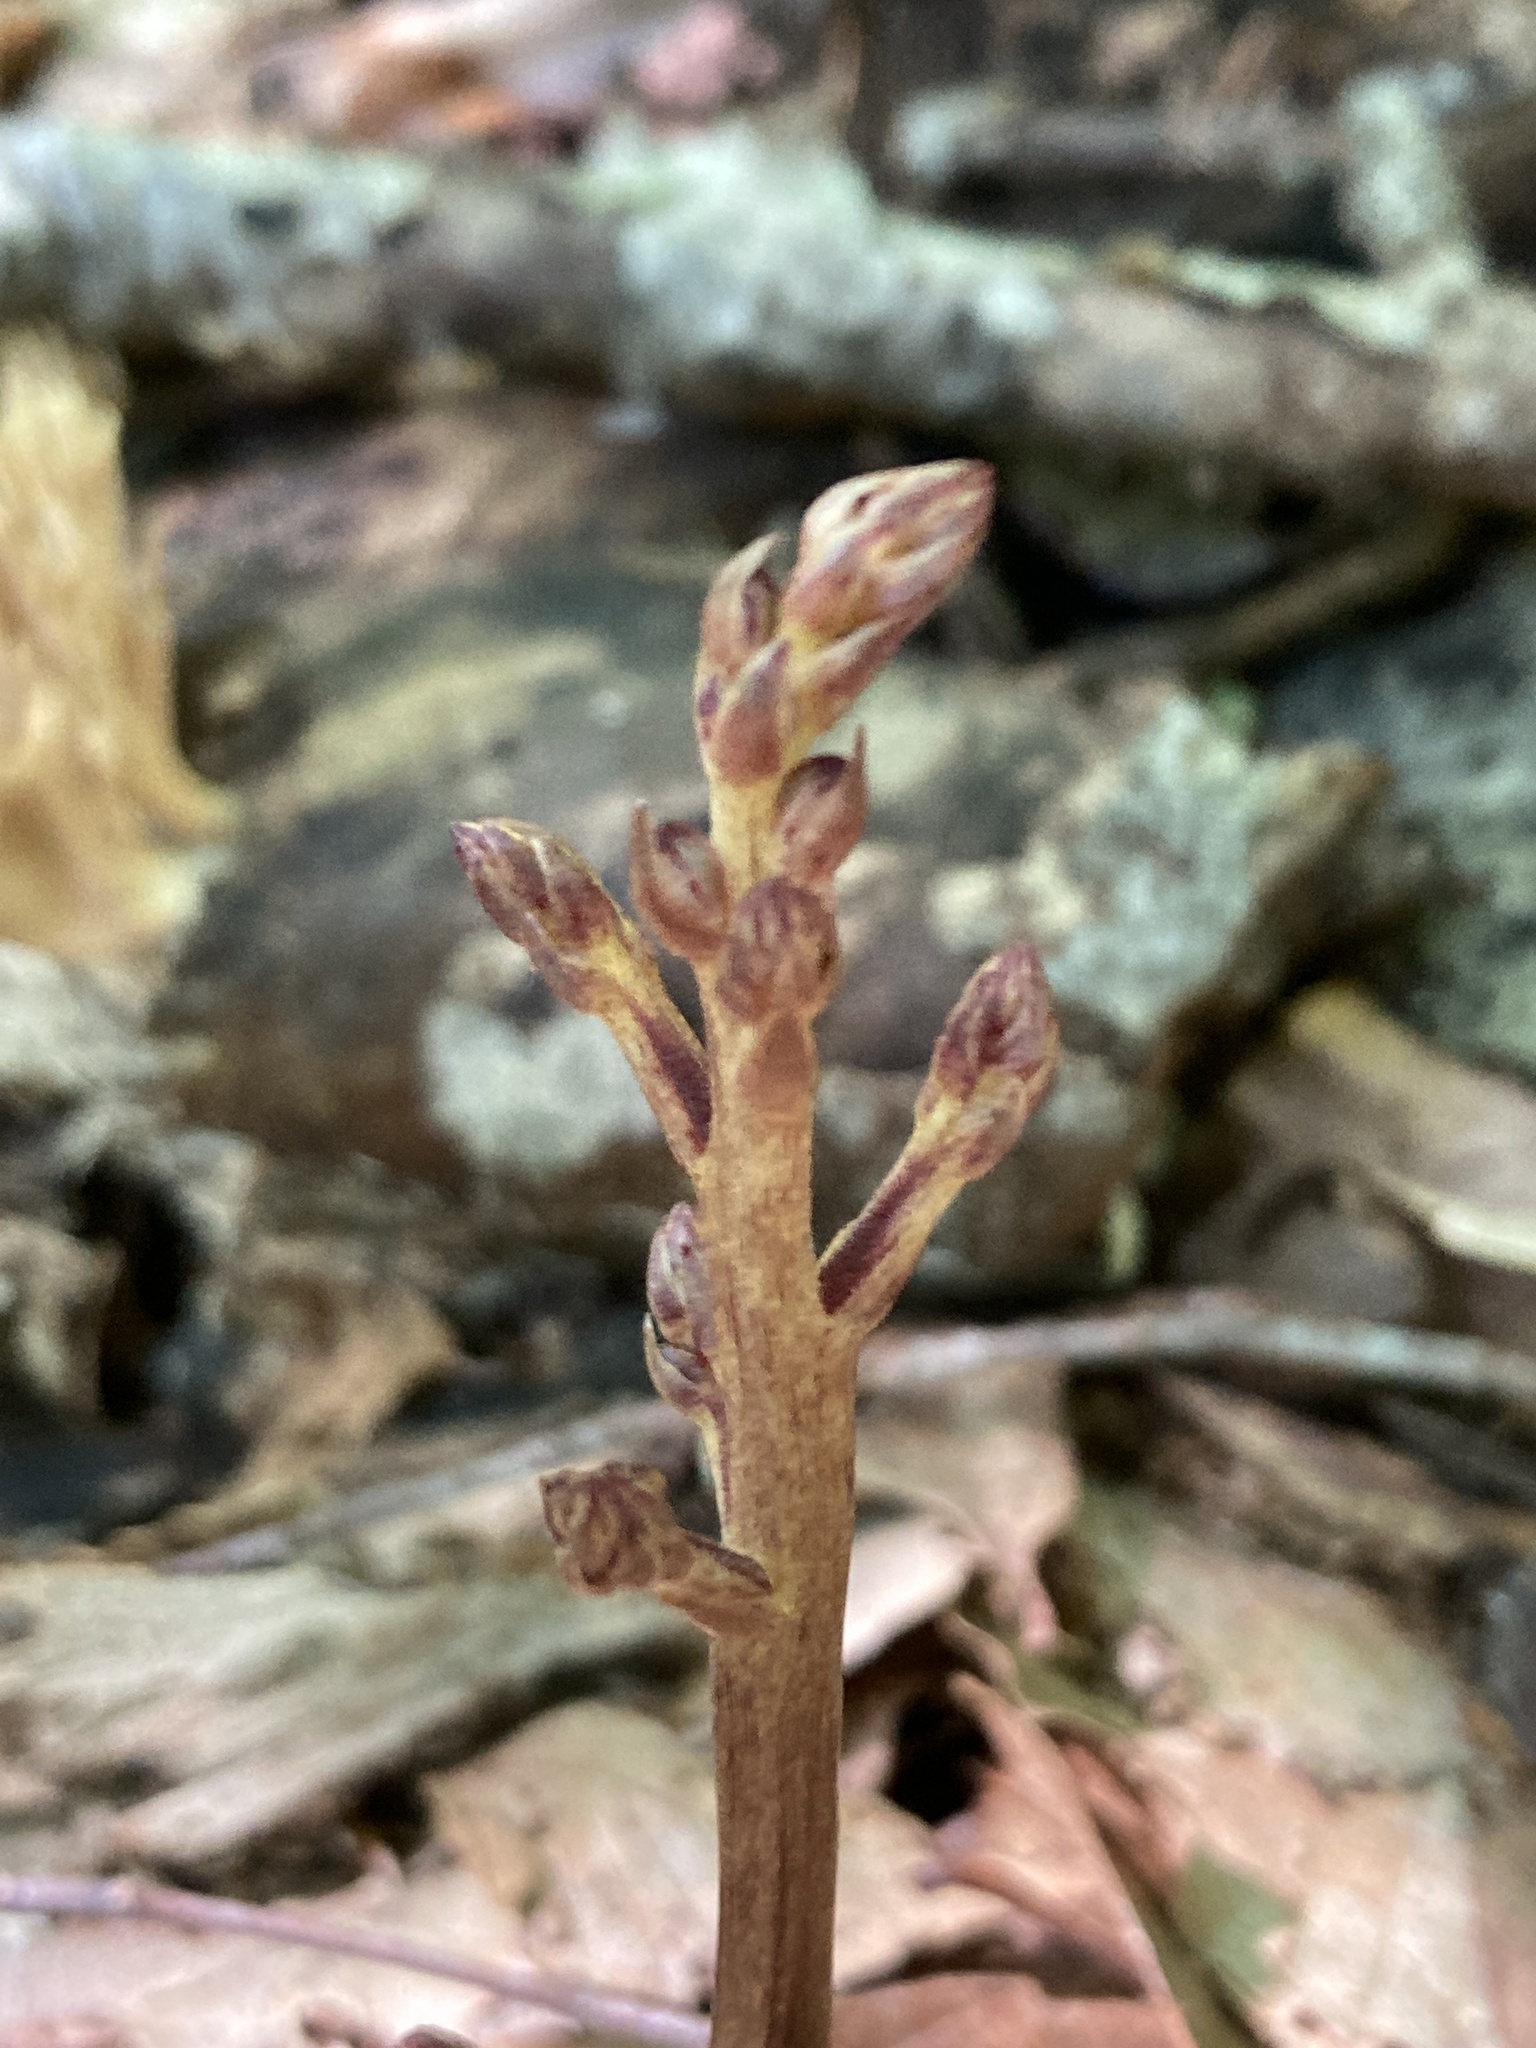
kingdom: Plantae
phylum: Tracheophyta
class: Magnoliopsida
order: Lamiales
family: Orobanchaceae
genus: Epifagus
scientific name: Epifagus virginiana
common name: Beechdrops
